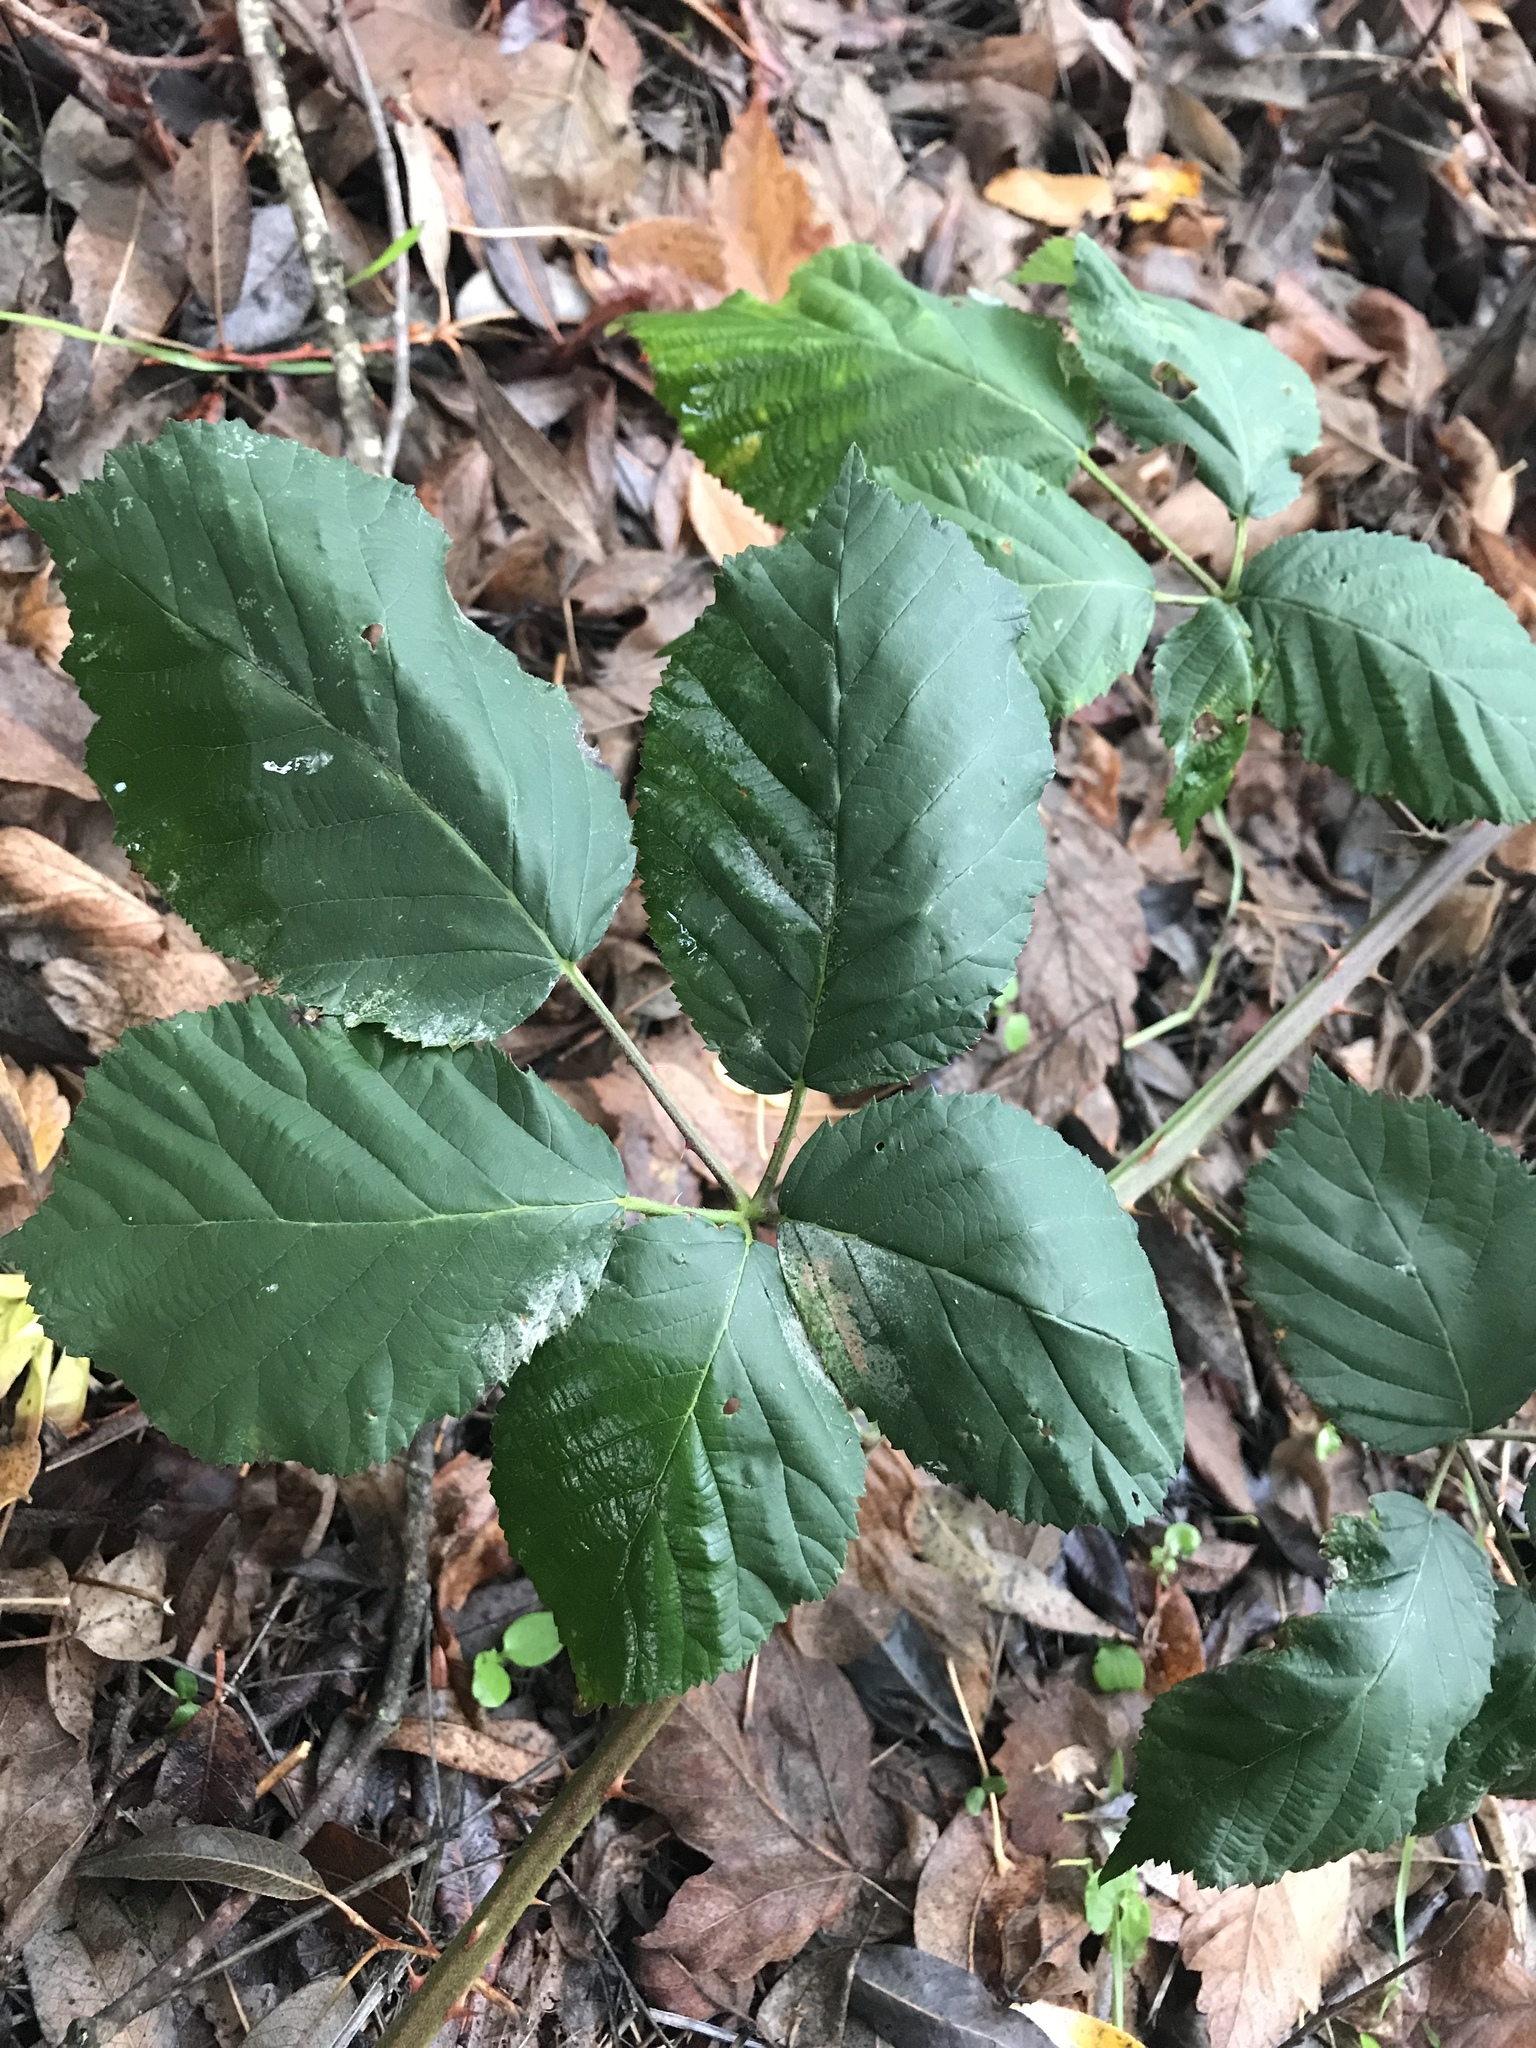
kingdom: Plantae
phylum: Tracheophyta
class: Magnoliopsida
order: Rosales
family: Rosaceae
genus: Rubus
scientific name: Rubus armeniacus
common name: Himalayan blackberry
